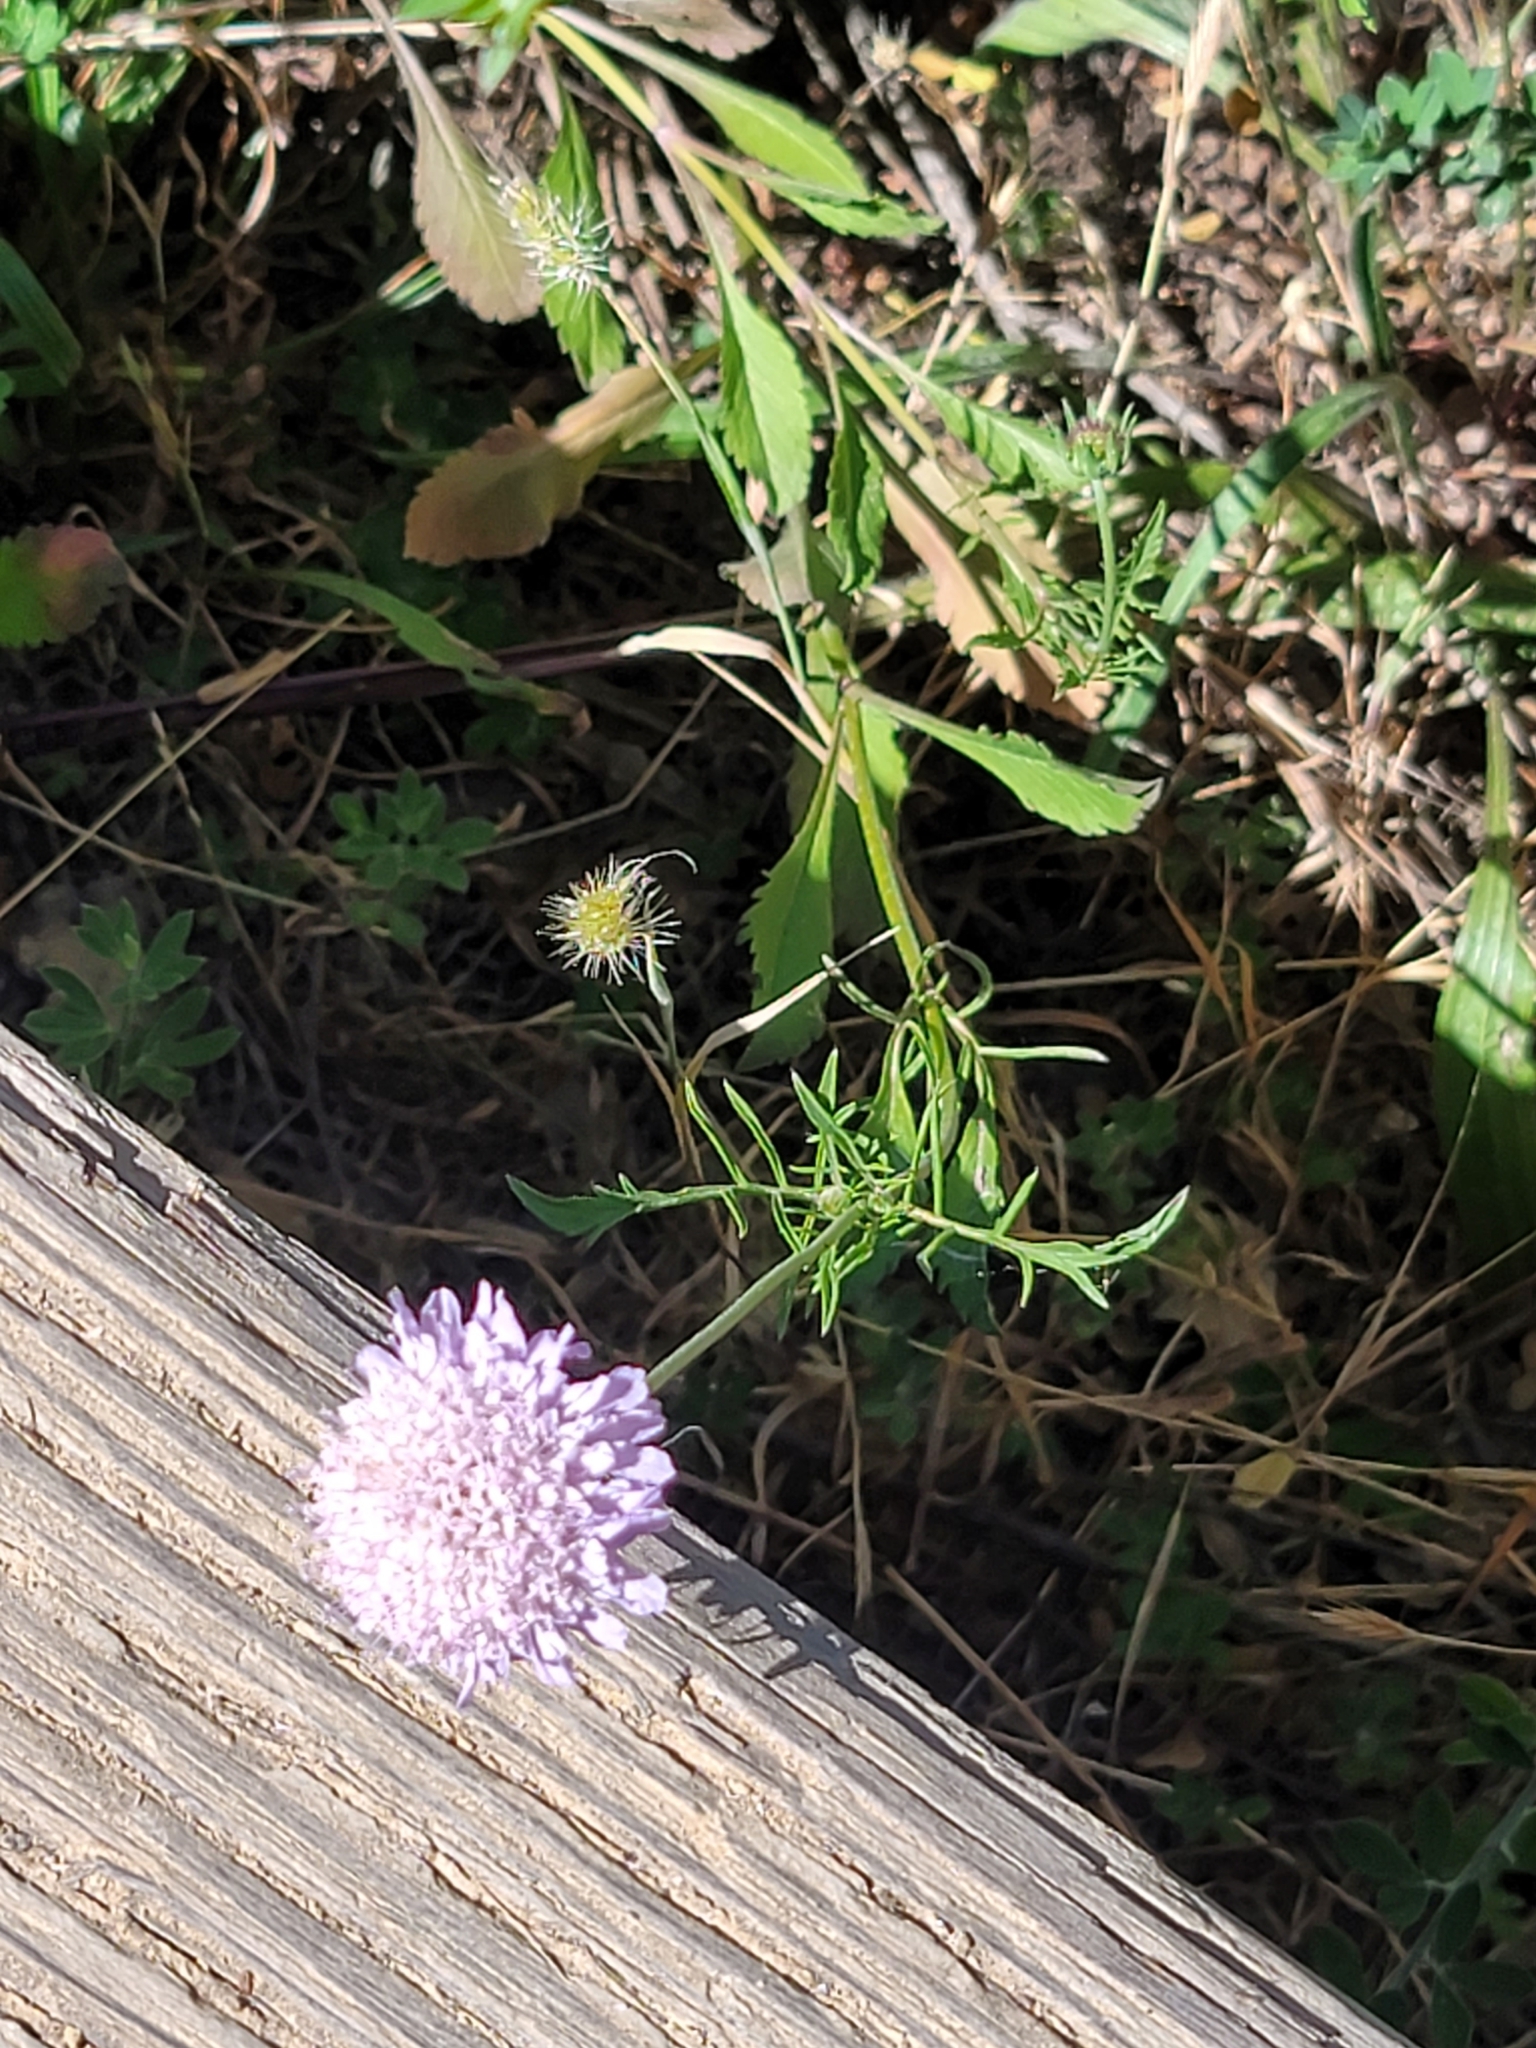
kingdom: Plantae
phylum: Tracheophyta
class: Magnoliopsida
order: Dipsacales
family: Caprifoliaceae
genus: Sixalix
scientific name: Sixalix atropurpurea
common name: Sweet scabious
